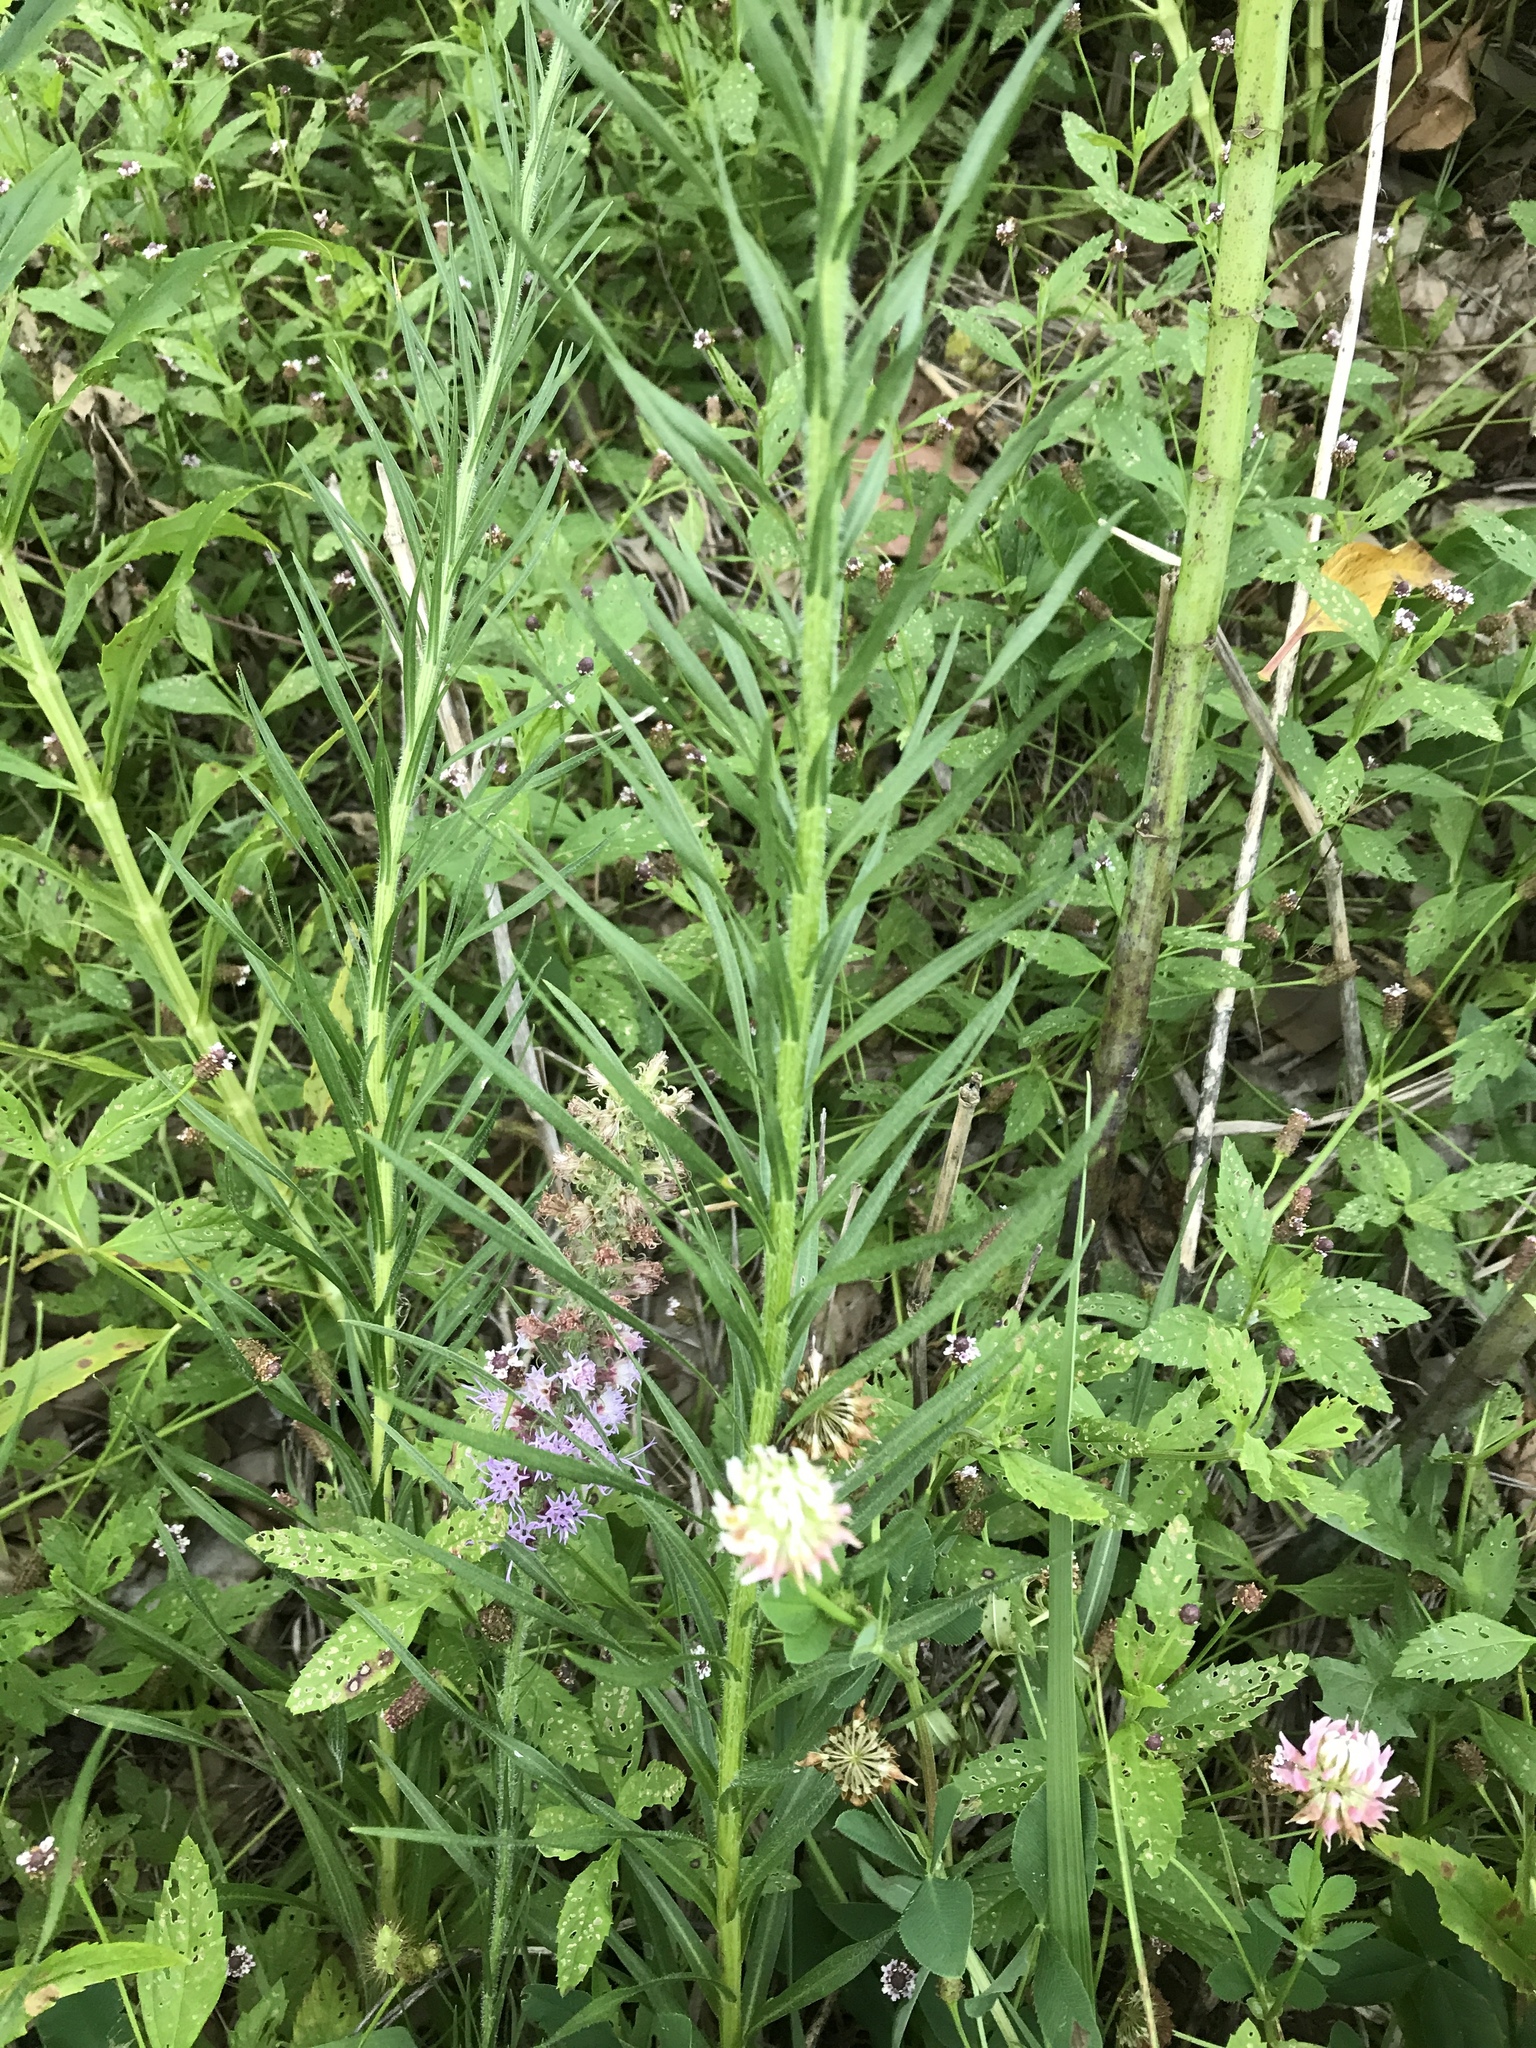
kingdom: Plantae
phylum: Tracheophyta
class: Magnoliopsida
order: Asterales
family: Asteraceae
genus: Liatris
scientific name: Liatris pycnostachya
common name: Cattail gayfeather
